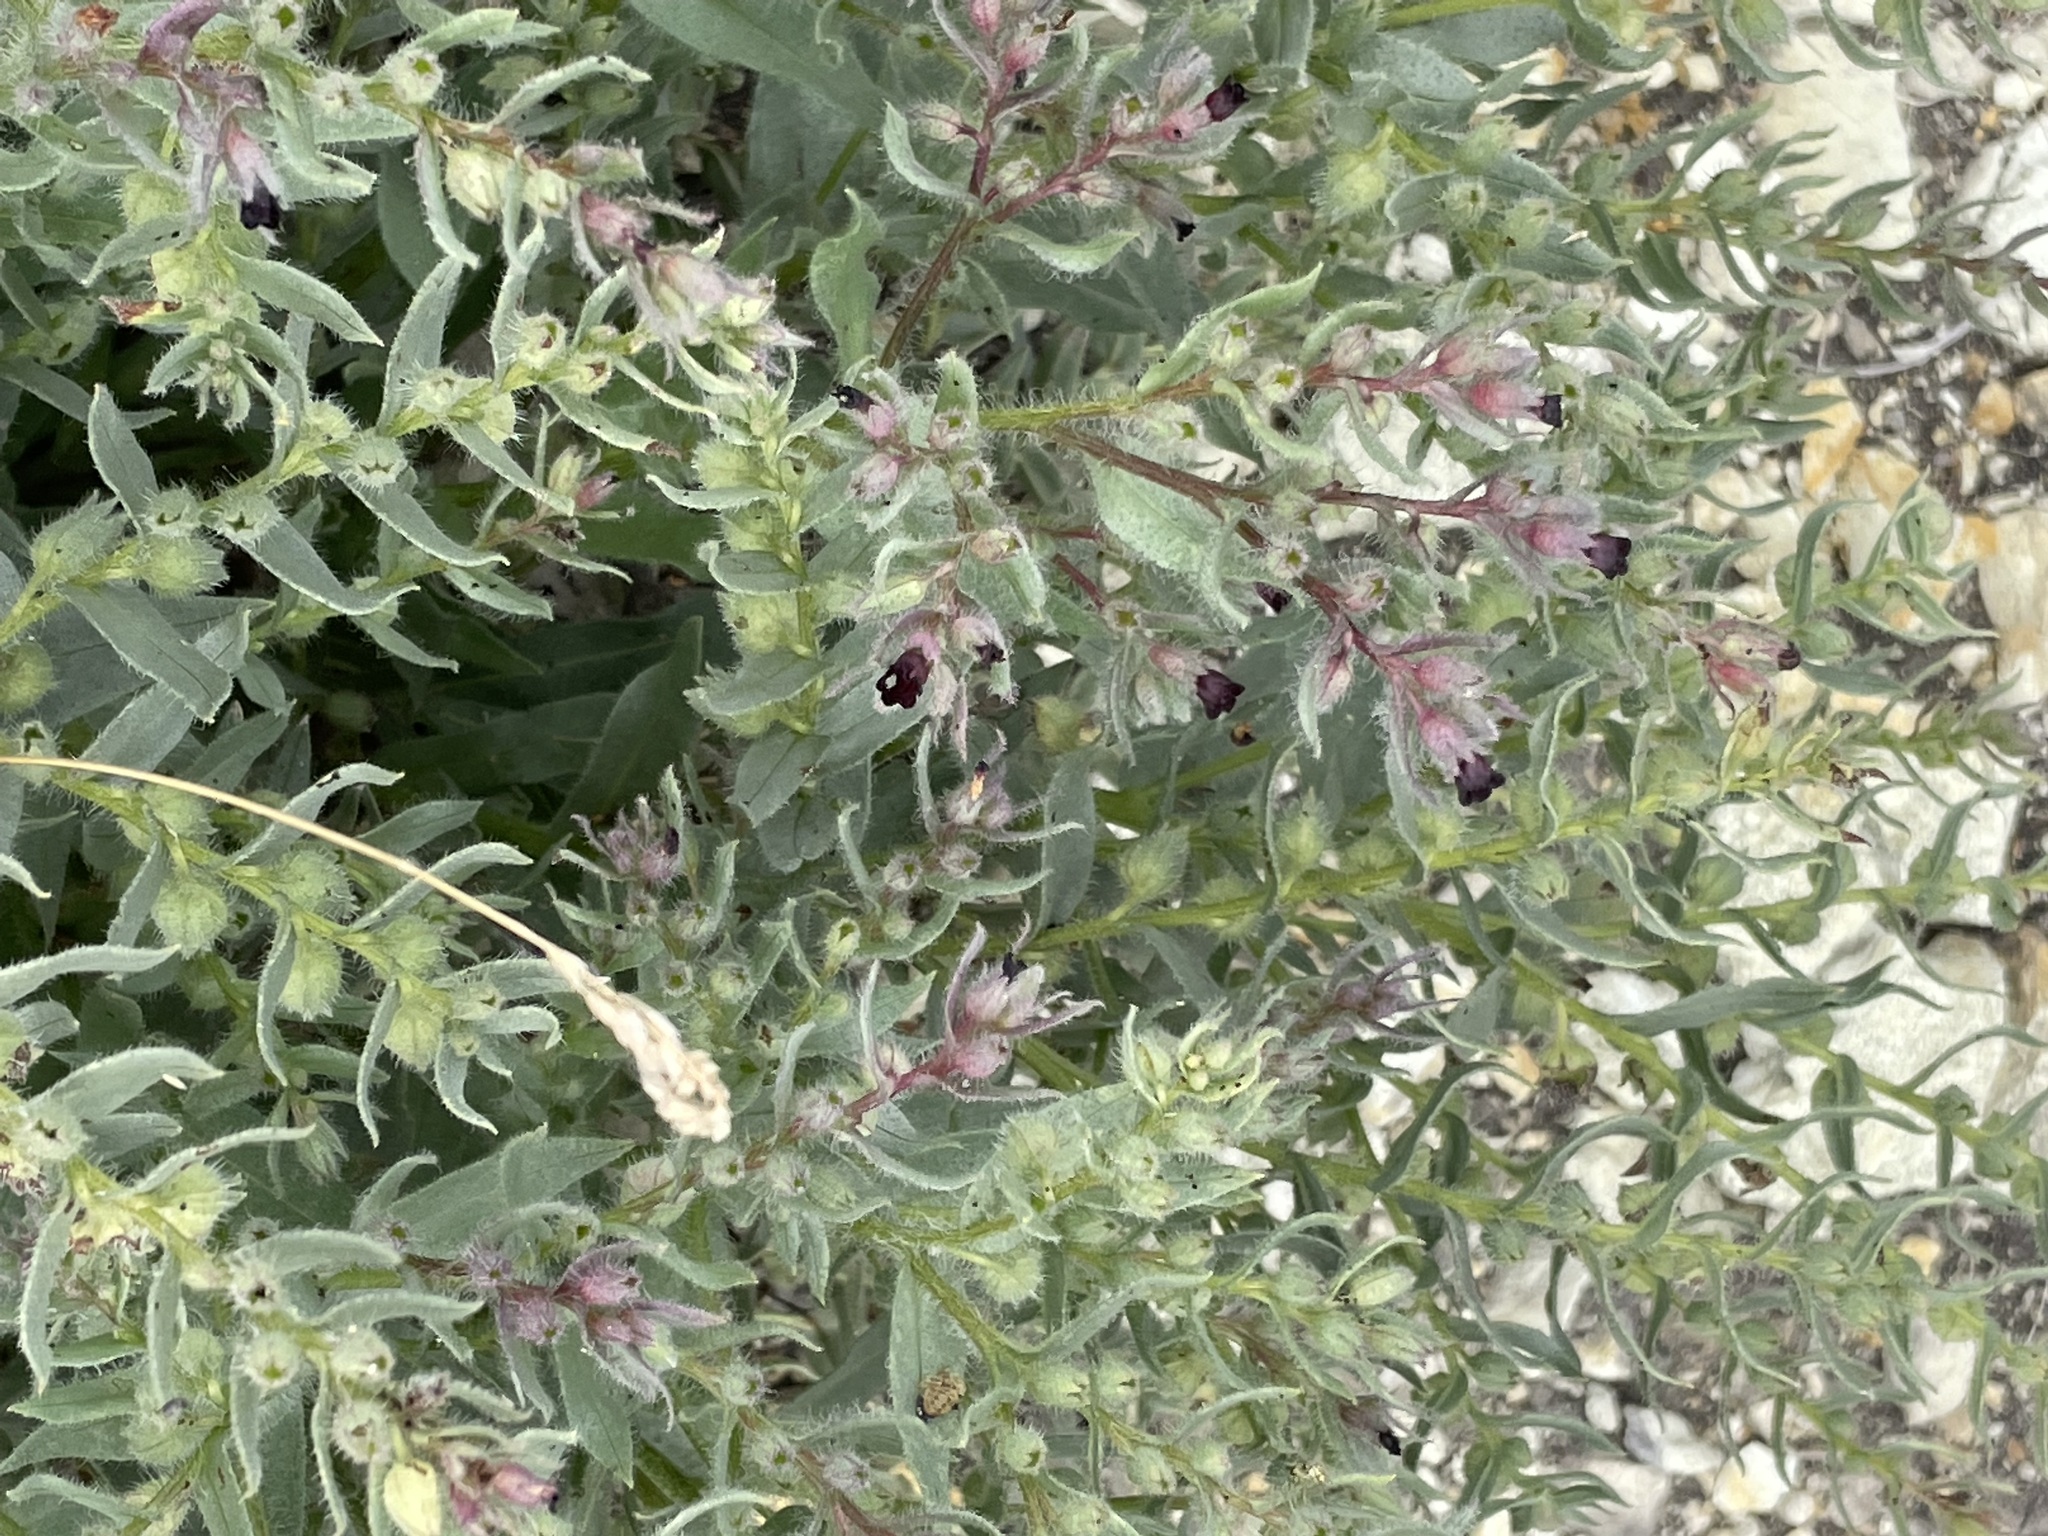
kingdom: Plantae
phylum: Tracheophyta
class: Magnoliopsida
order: Boraginales
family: Boraginaceae
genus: Nonea
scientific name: Nonea pulla
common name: Brown nonea
